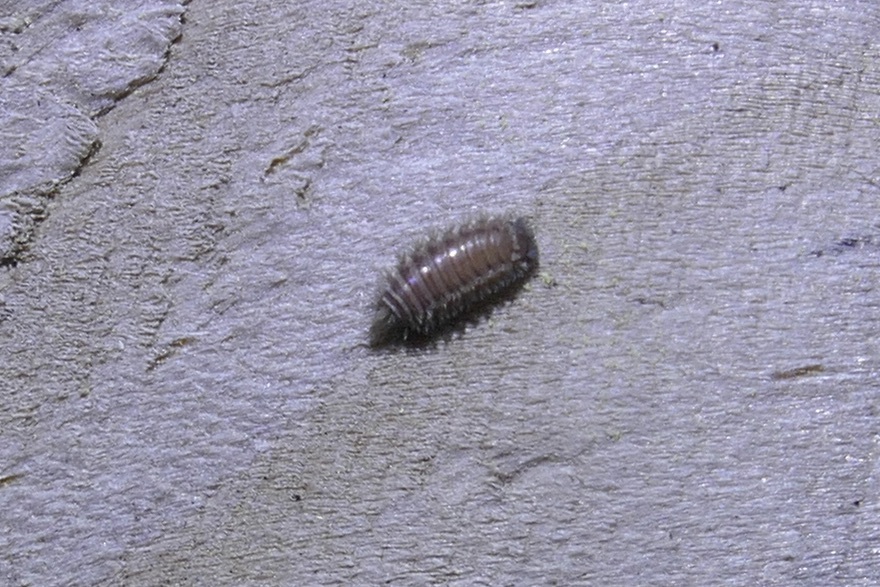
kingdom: Animalia
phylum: Arthropoda
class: Diplopoda
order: Polyxenida
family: Polyxenidae
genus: Polyxenus
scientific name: Polyxenus lagurus
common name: Bristly millipede
